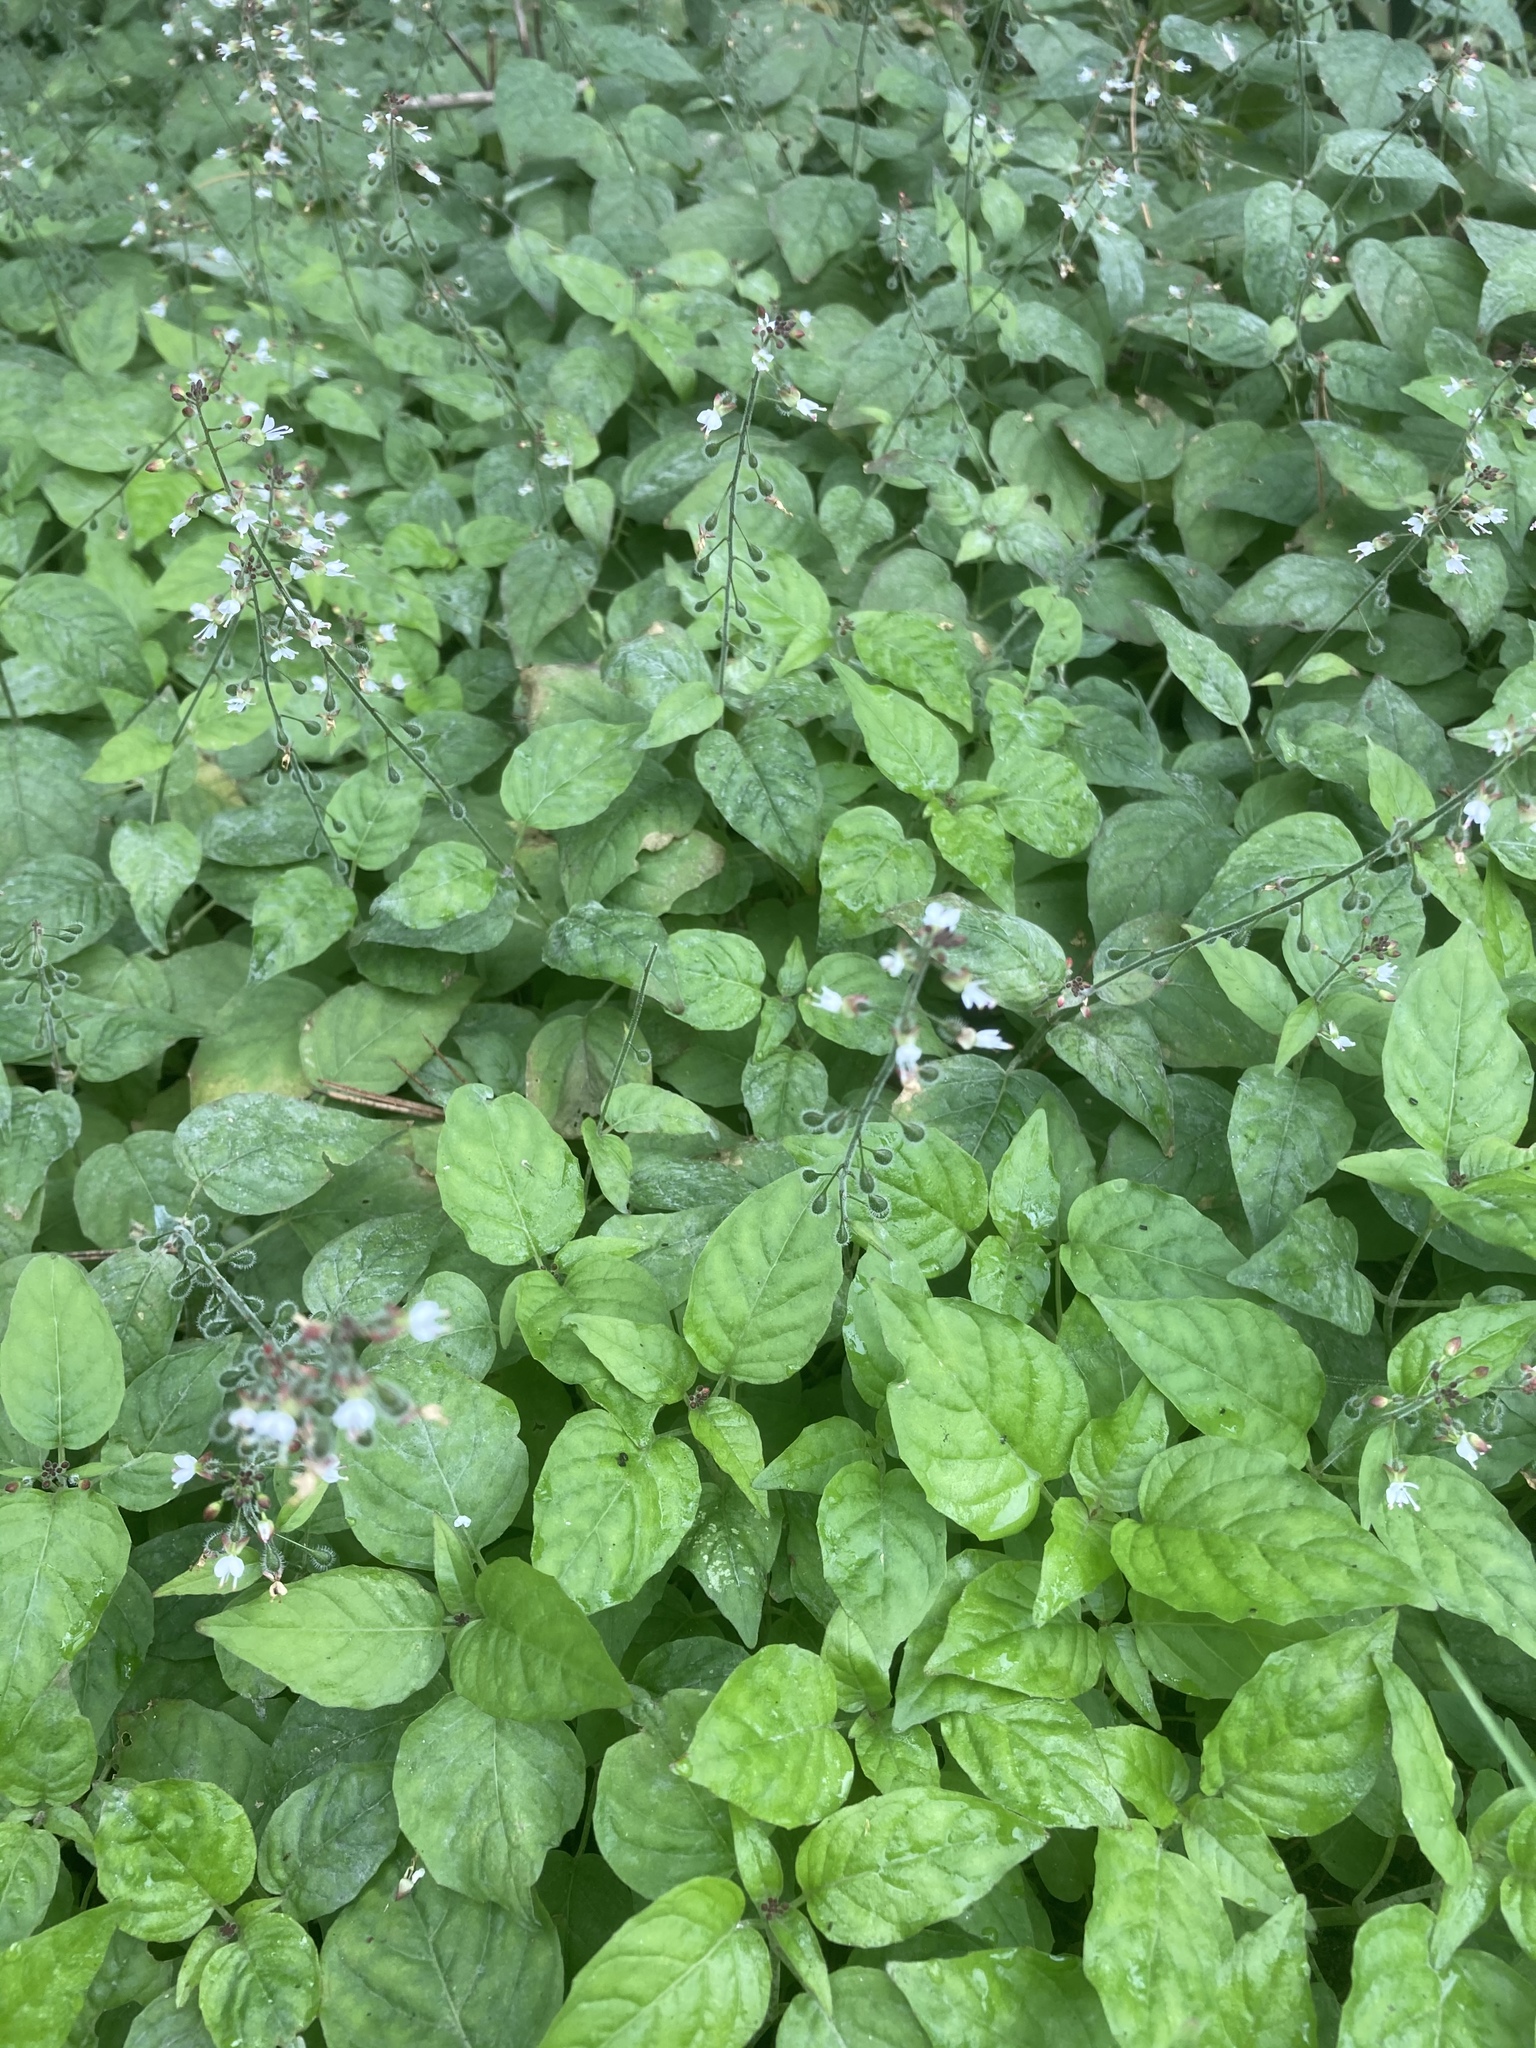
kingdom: Plantae
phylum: Tracheophyta
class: Magnoliopsida
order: Myrtales
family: Onagraceae
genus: Circaea
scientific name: Circaea lutetiana
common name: Enchanter's-nightshade
